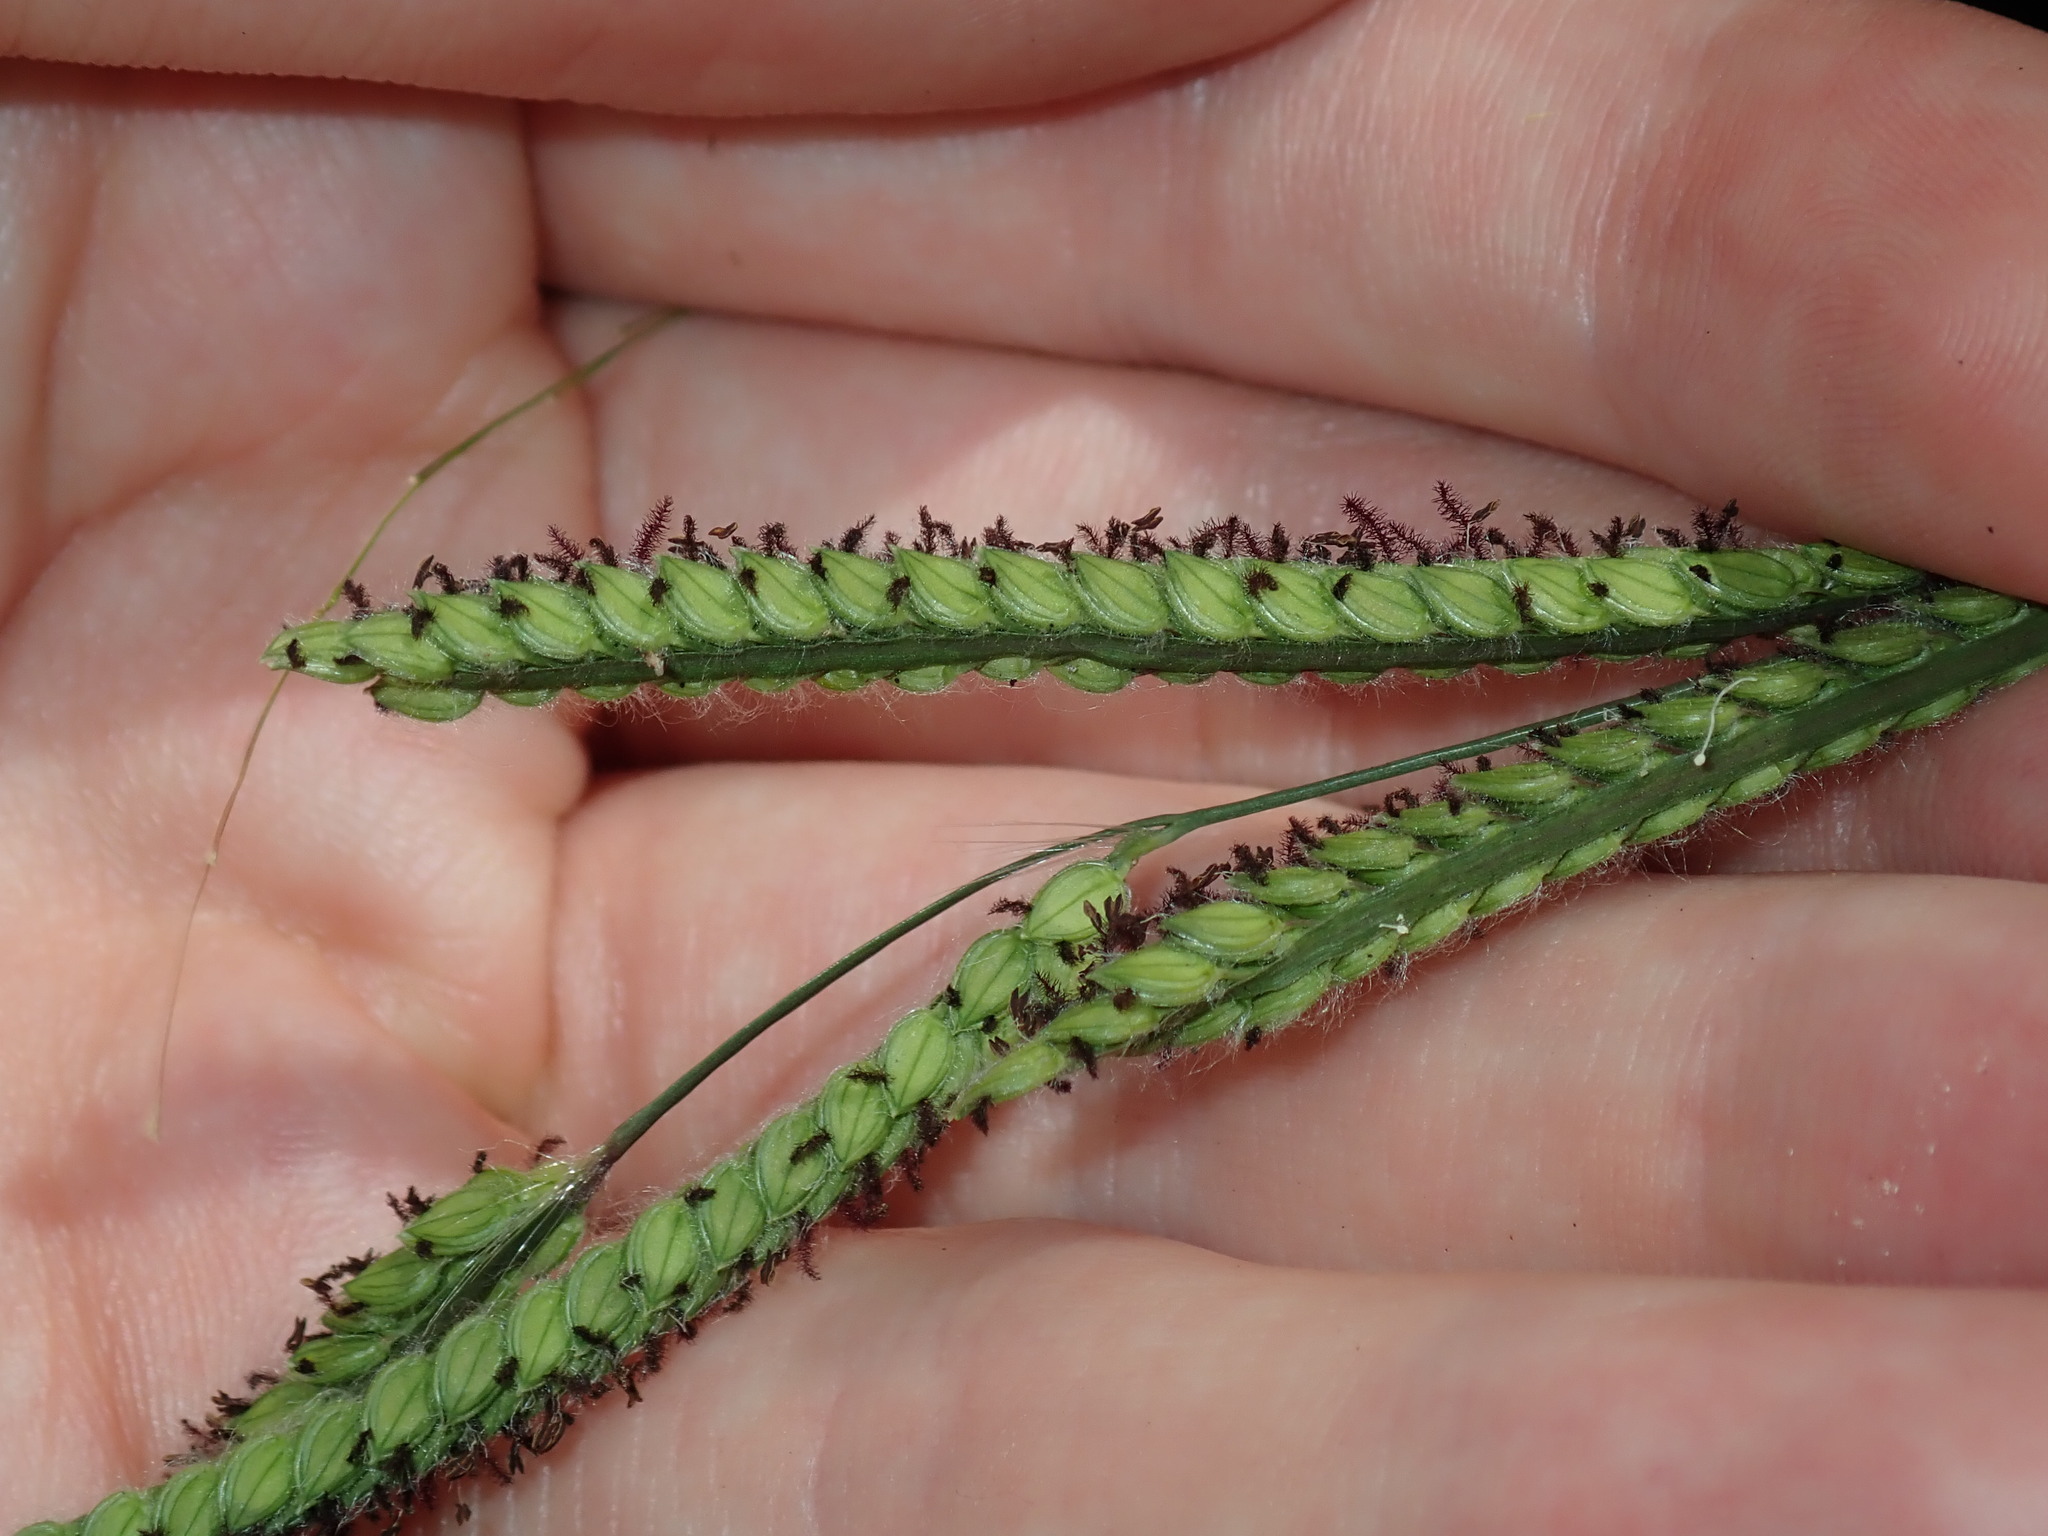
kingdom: Plantae
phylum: Tracheophyta
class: Liliopsida
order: Poales
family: Poaceae
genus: Paspalum
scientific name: Paspalum dilatatum
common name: Dallisgrass
